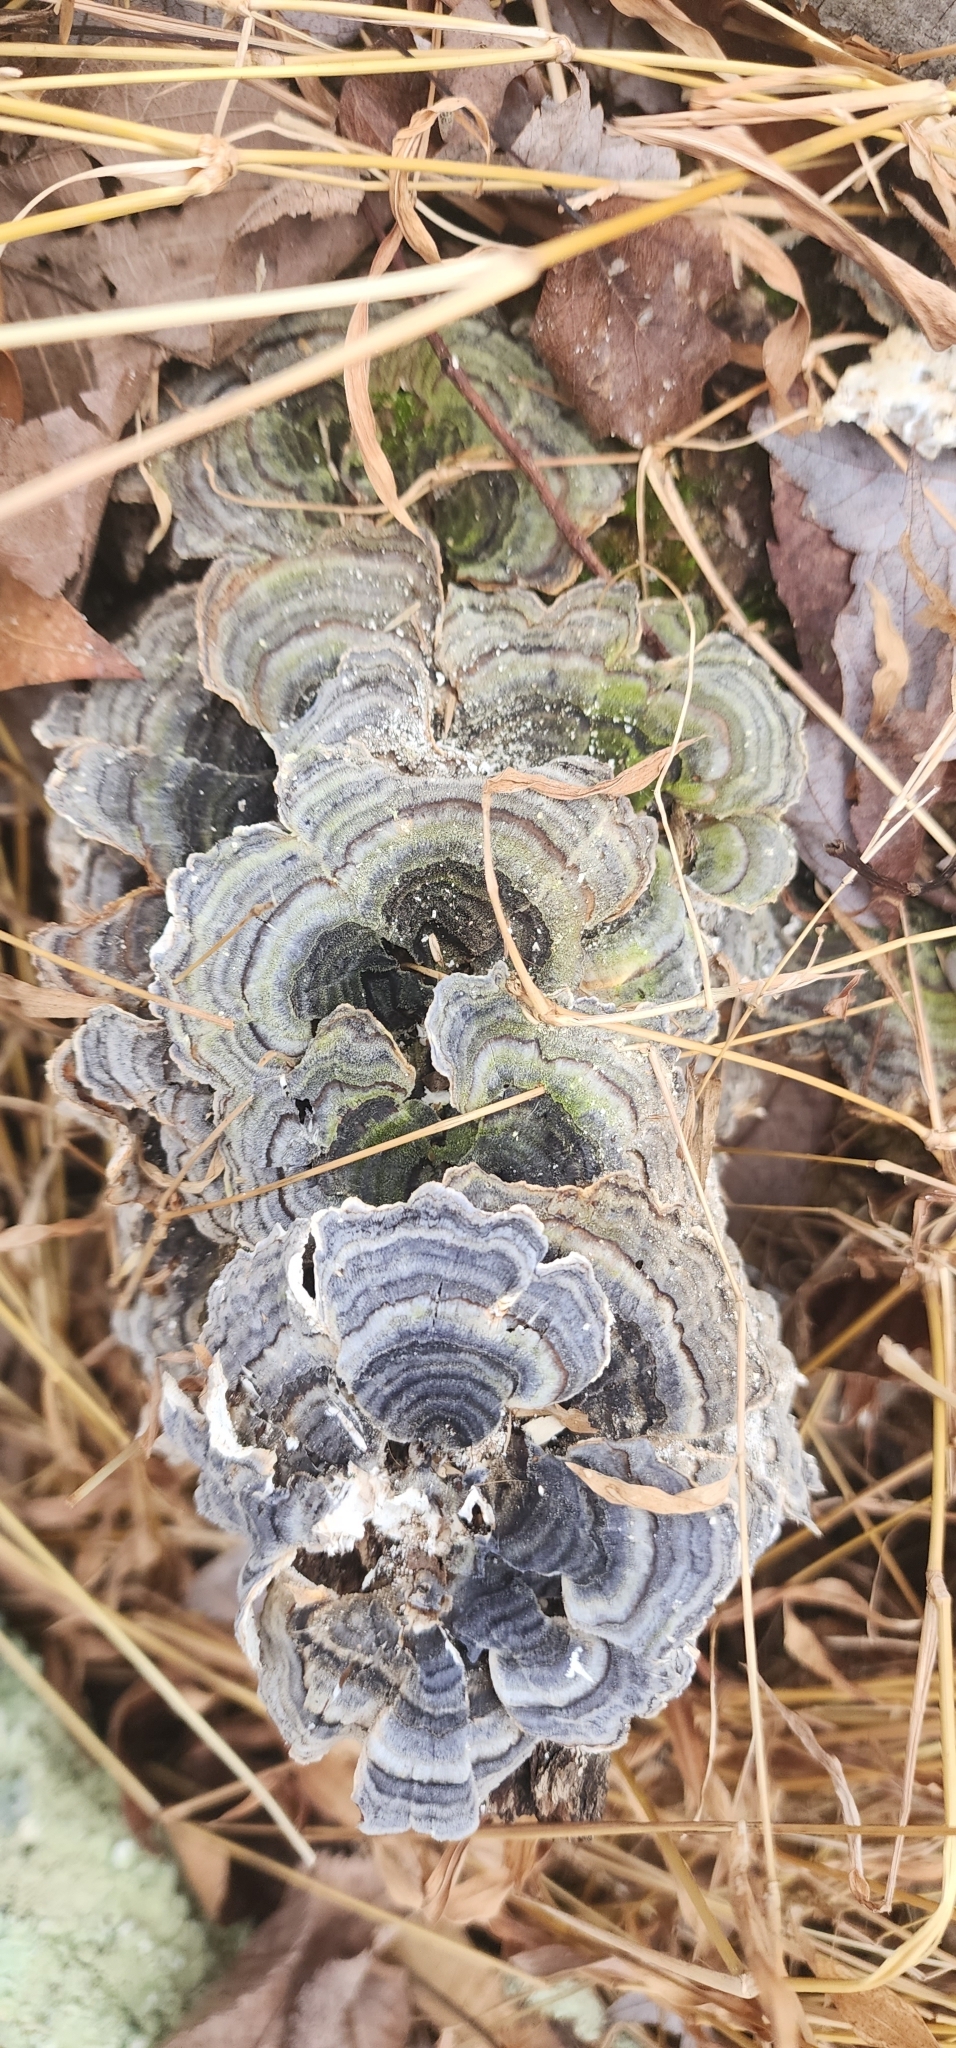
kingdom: Fungi
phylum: Basidiomycota
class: Agaricomycetes
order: Polyporales
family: Polyporaceae
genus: Trametes
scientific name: Trametes versicolor
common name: Turkeytail
